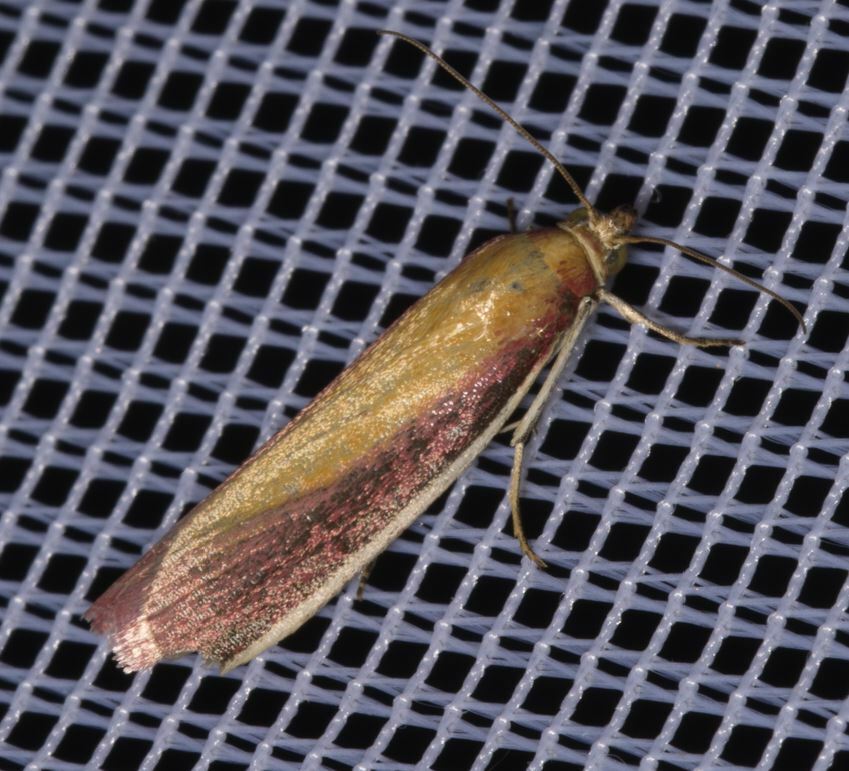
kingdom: Animalia
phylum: Arthropoda
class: Insecta
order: Lepidoptera
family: Pyralidae
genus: Oncocera
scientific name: Oncocera semirubella
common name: Rosy-striped knot-horn
